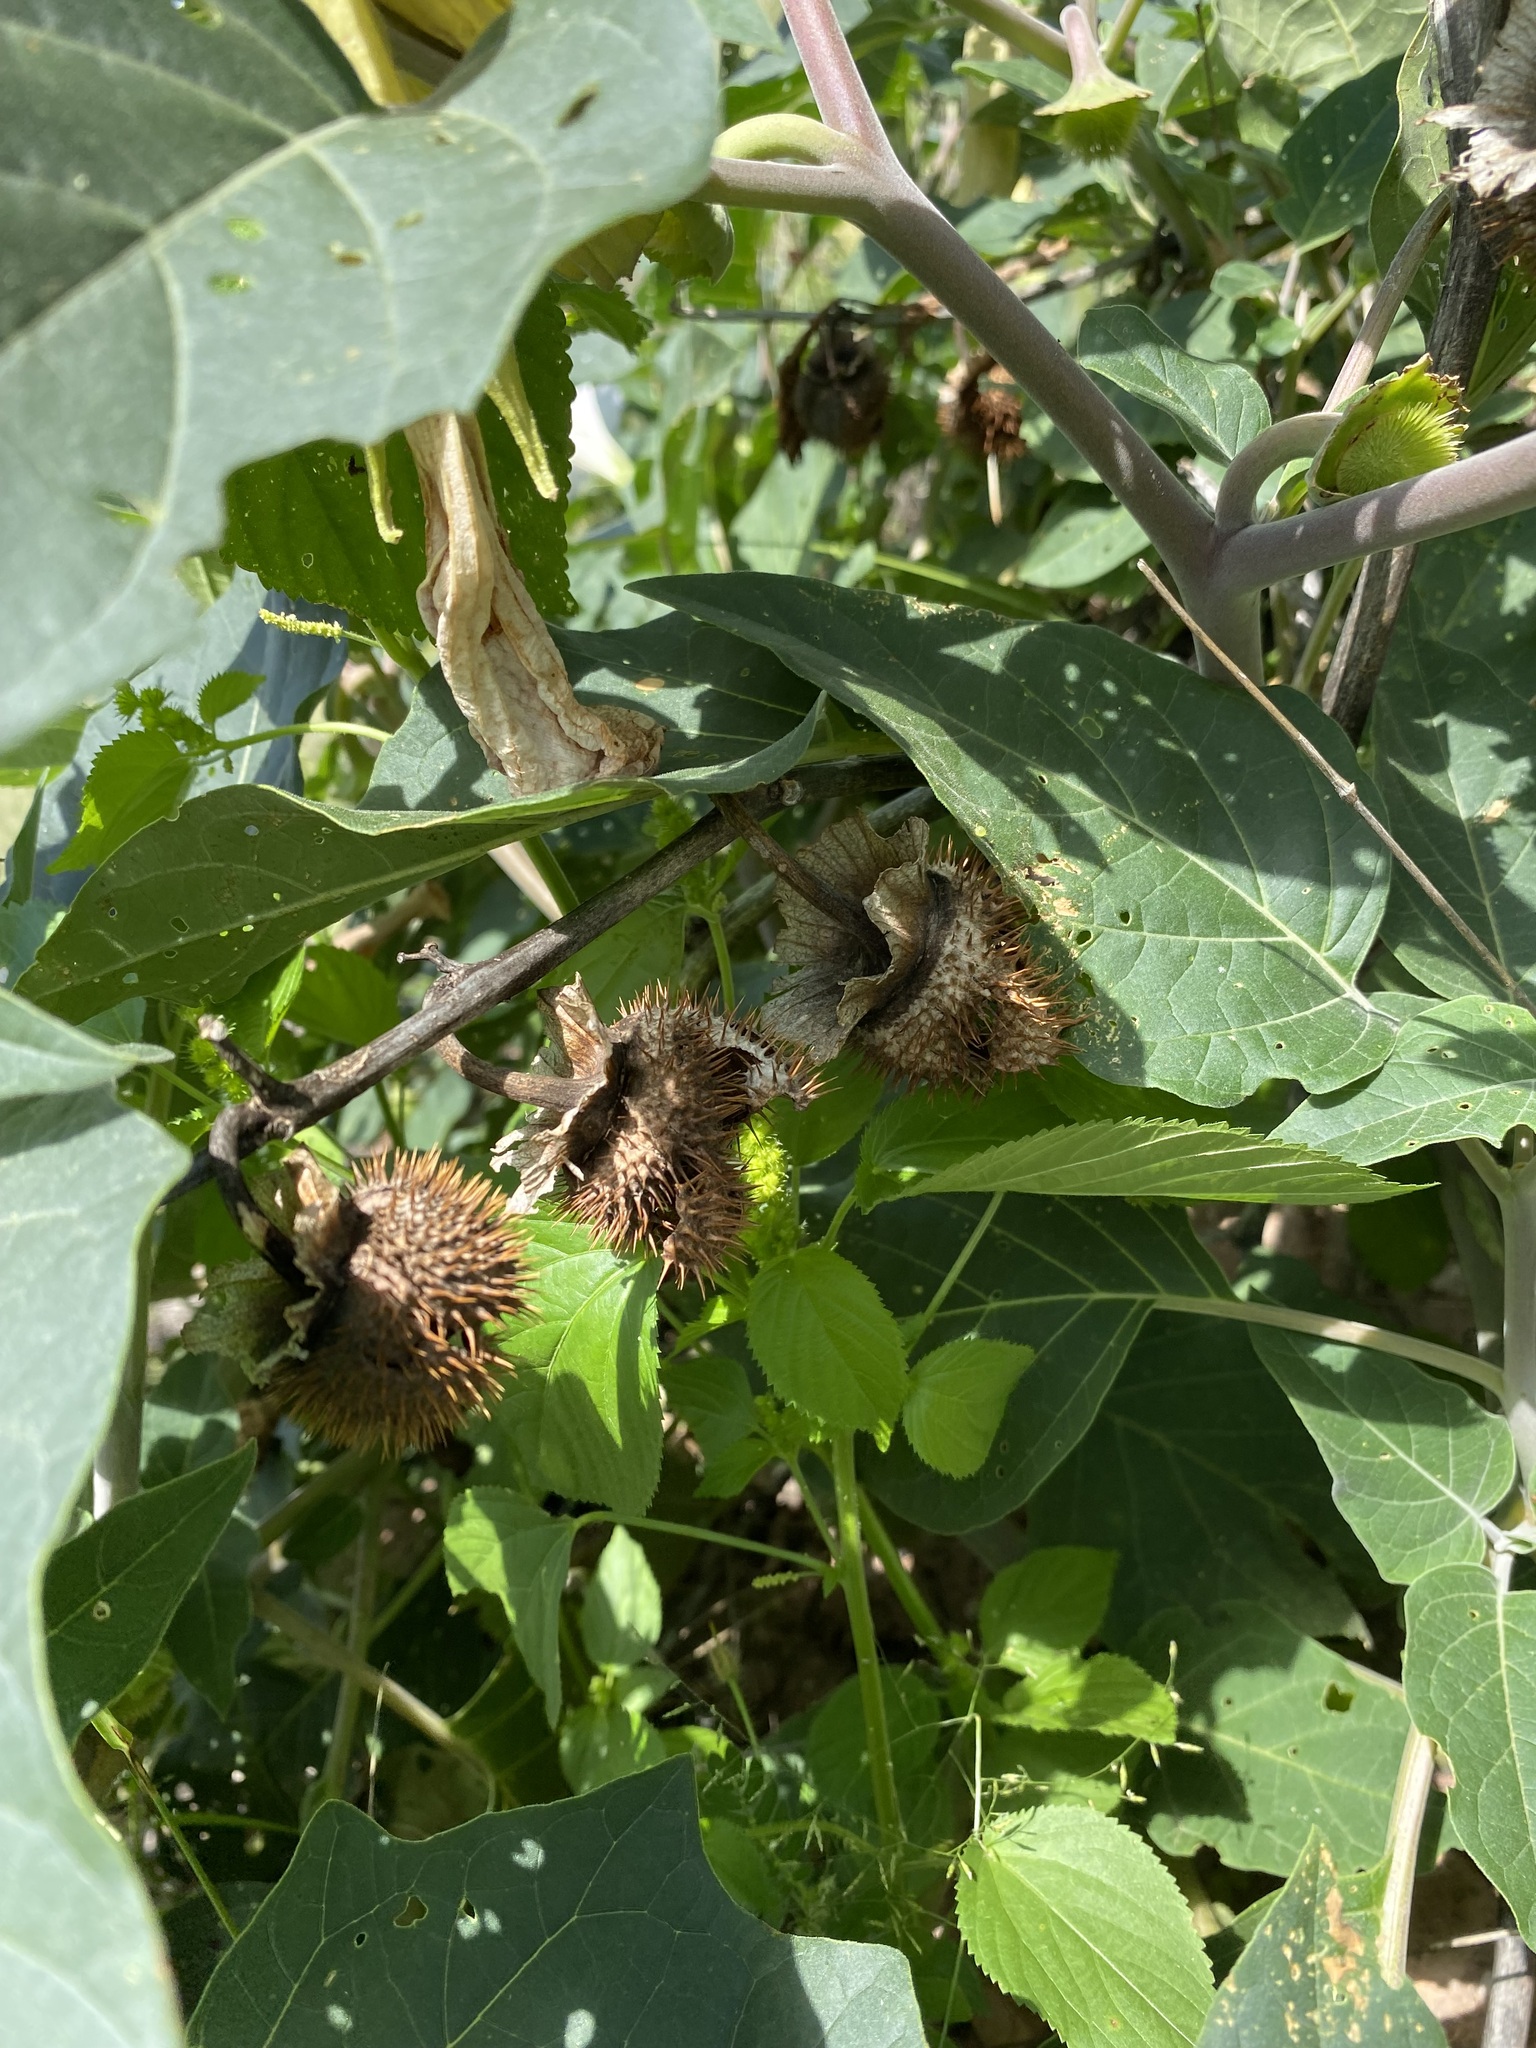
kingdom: Plantae
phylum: Tracheophyta
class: Magnoliopsida
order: Solanales
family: Solanaceae
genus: Datura
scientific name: Datura wrightii
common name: Sacred thorn-apple
